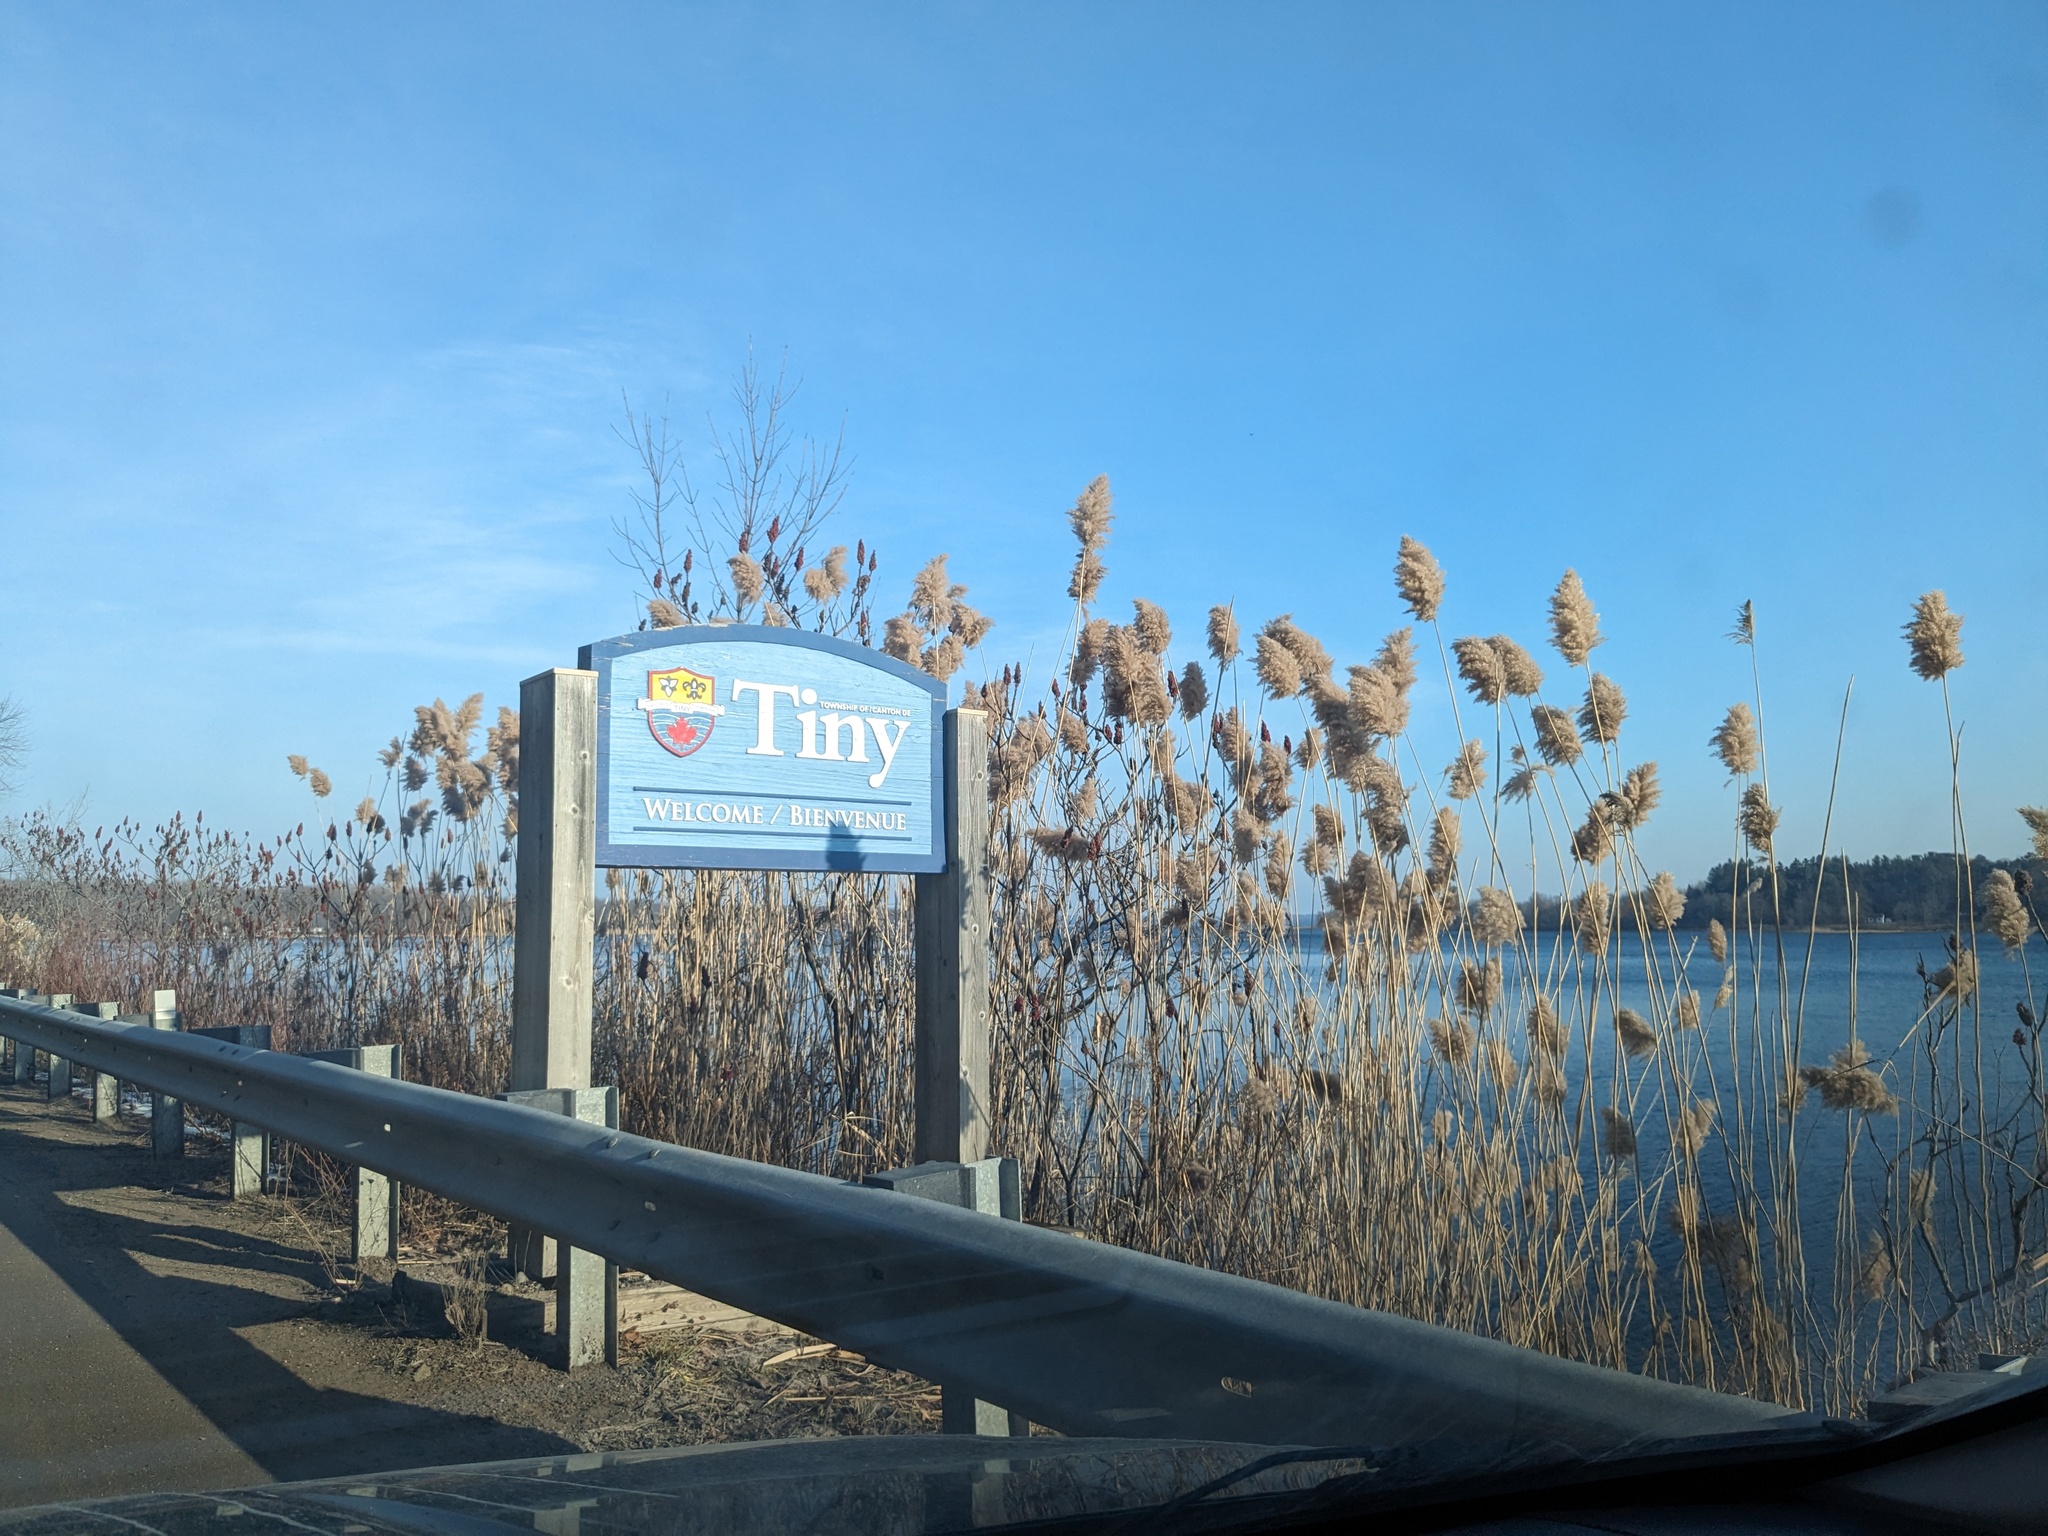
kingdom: Plantae
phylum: Tracheophyta
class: Liliopsida
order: Poales
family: Poaceae
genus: Phragmites
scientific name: Phragmites australis
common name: Common reed
